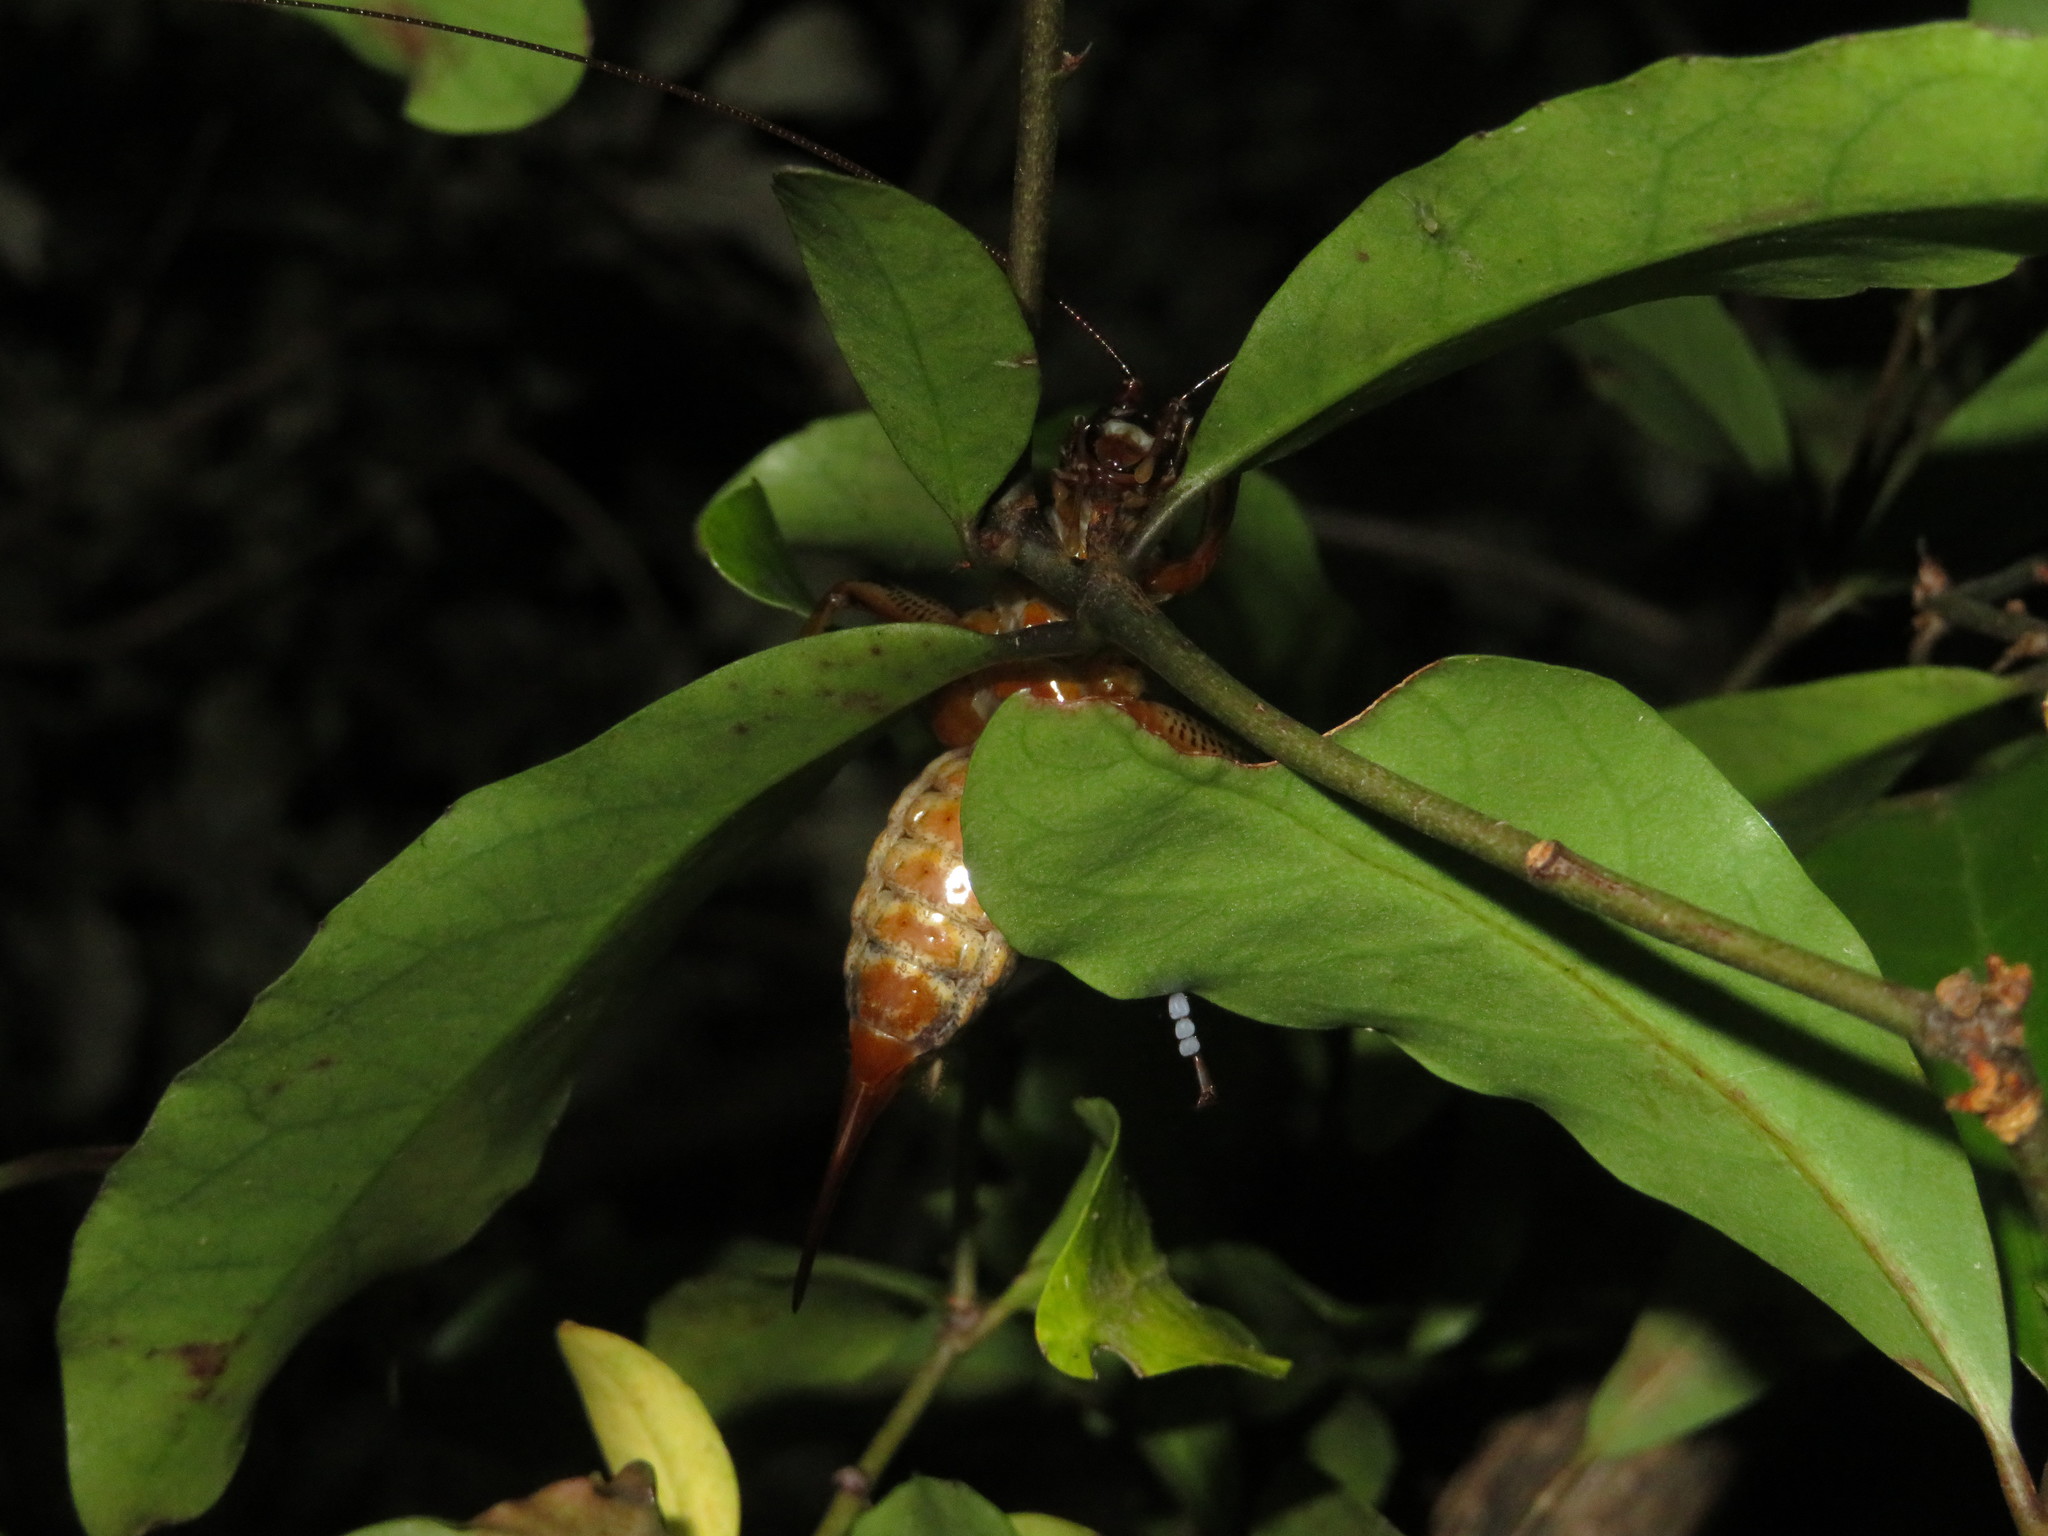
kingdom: Animalia
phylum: Arthropoda
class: Insecta
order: Orthoptera
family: Anostostomatidae
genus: Hemideina
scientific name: Hemideina thoracica
